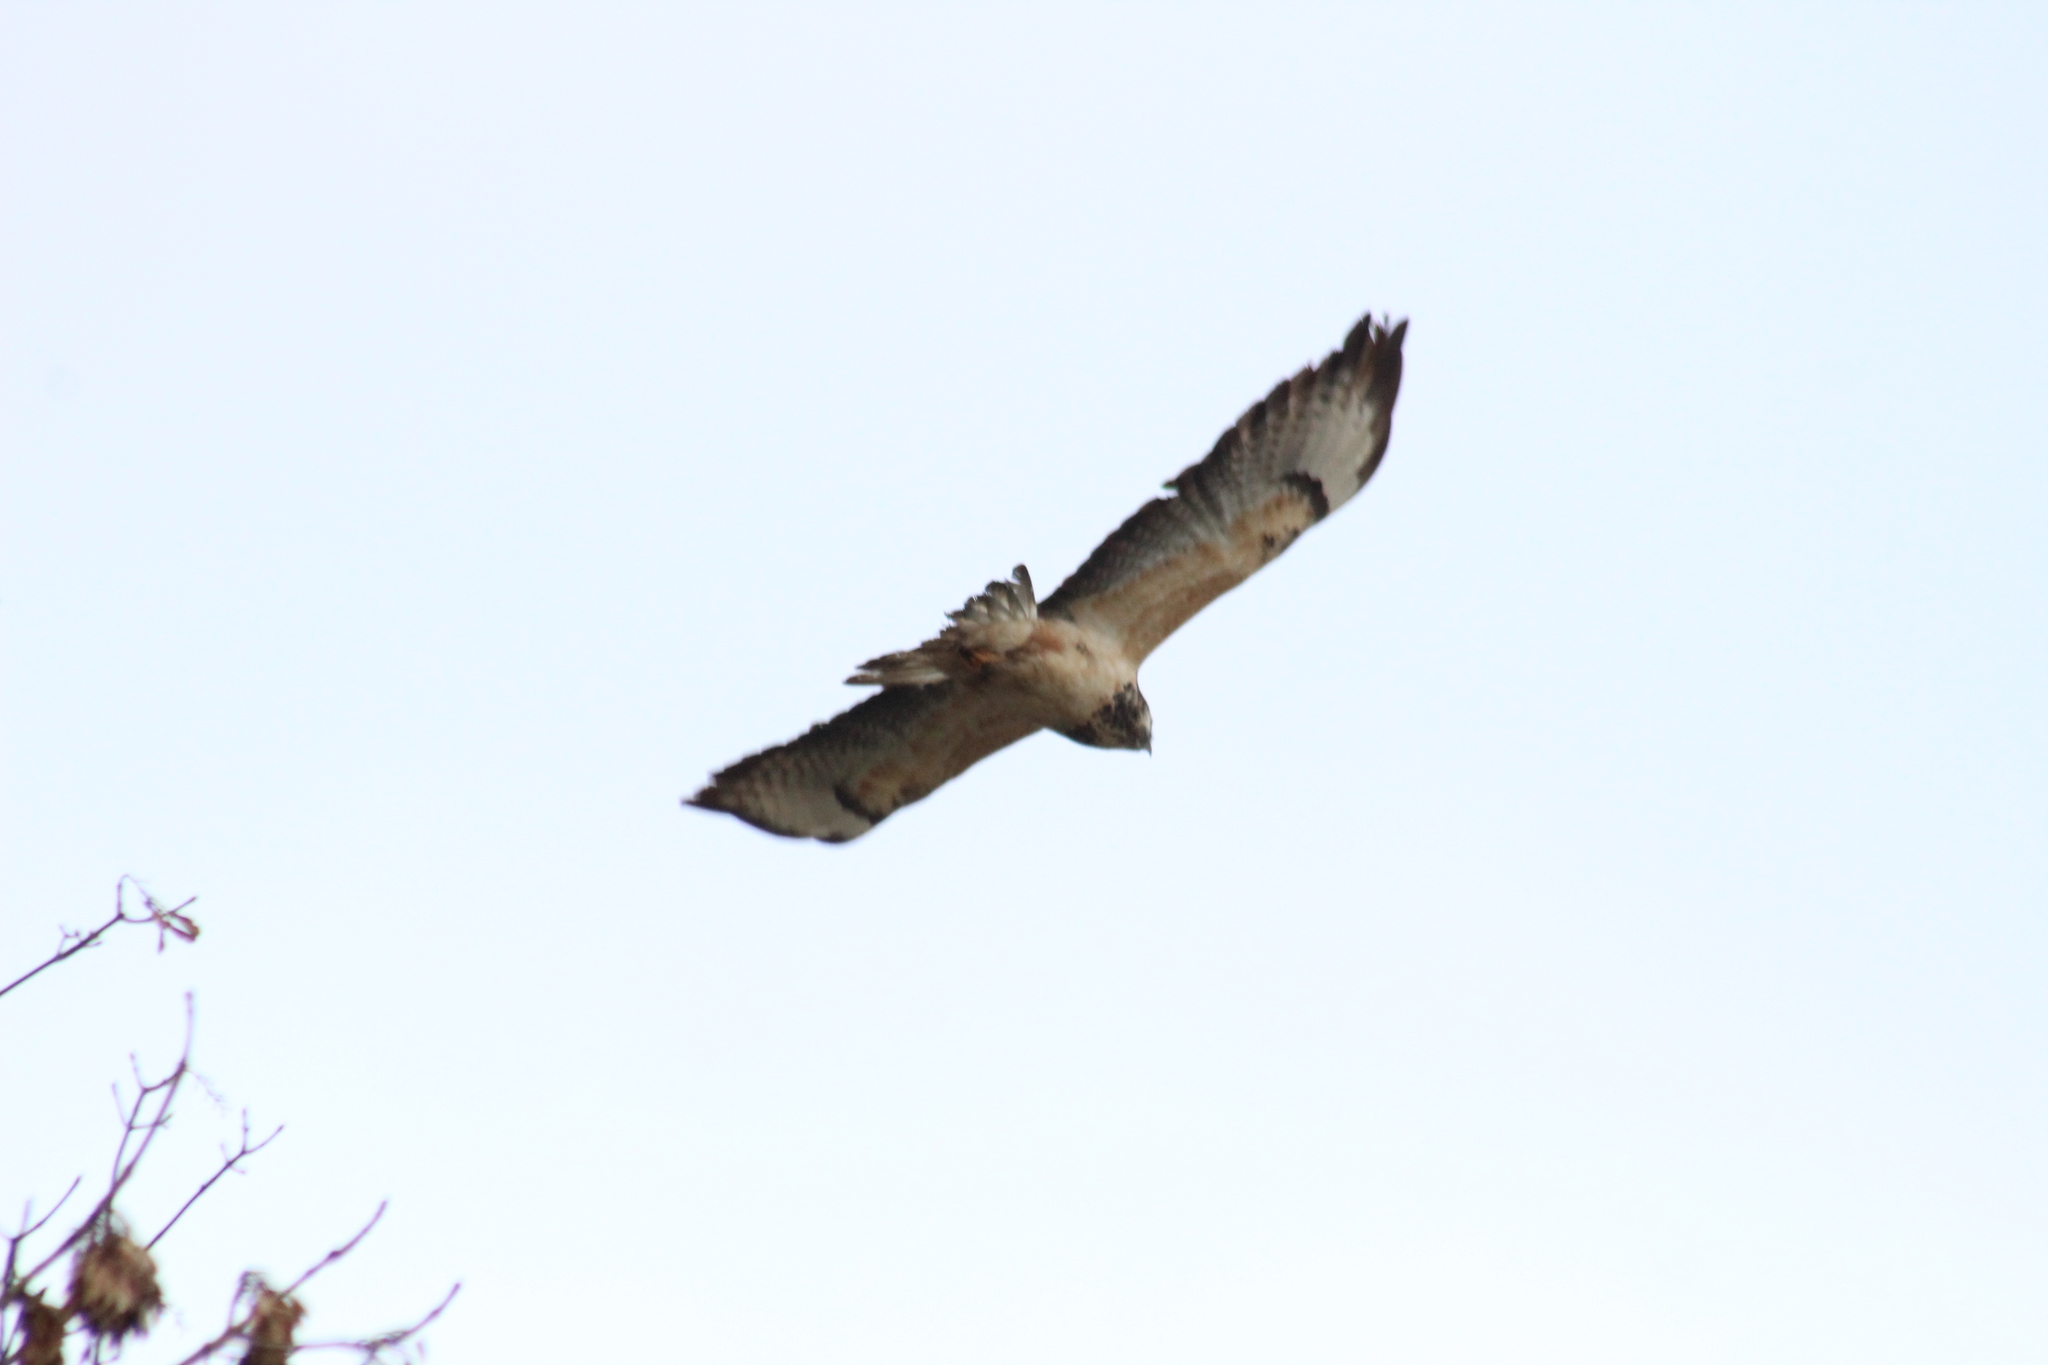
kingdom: Animalia
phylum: Chordata
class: Aves
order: Accipitriformes
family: Accipitridae
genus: Buteo
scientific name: Buteo buteo
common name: Common buzzard
